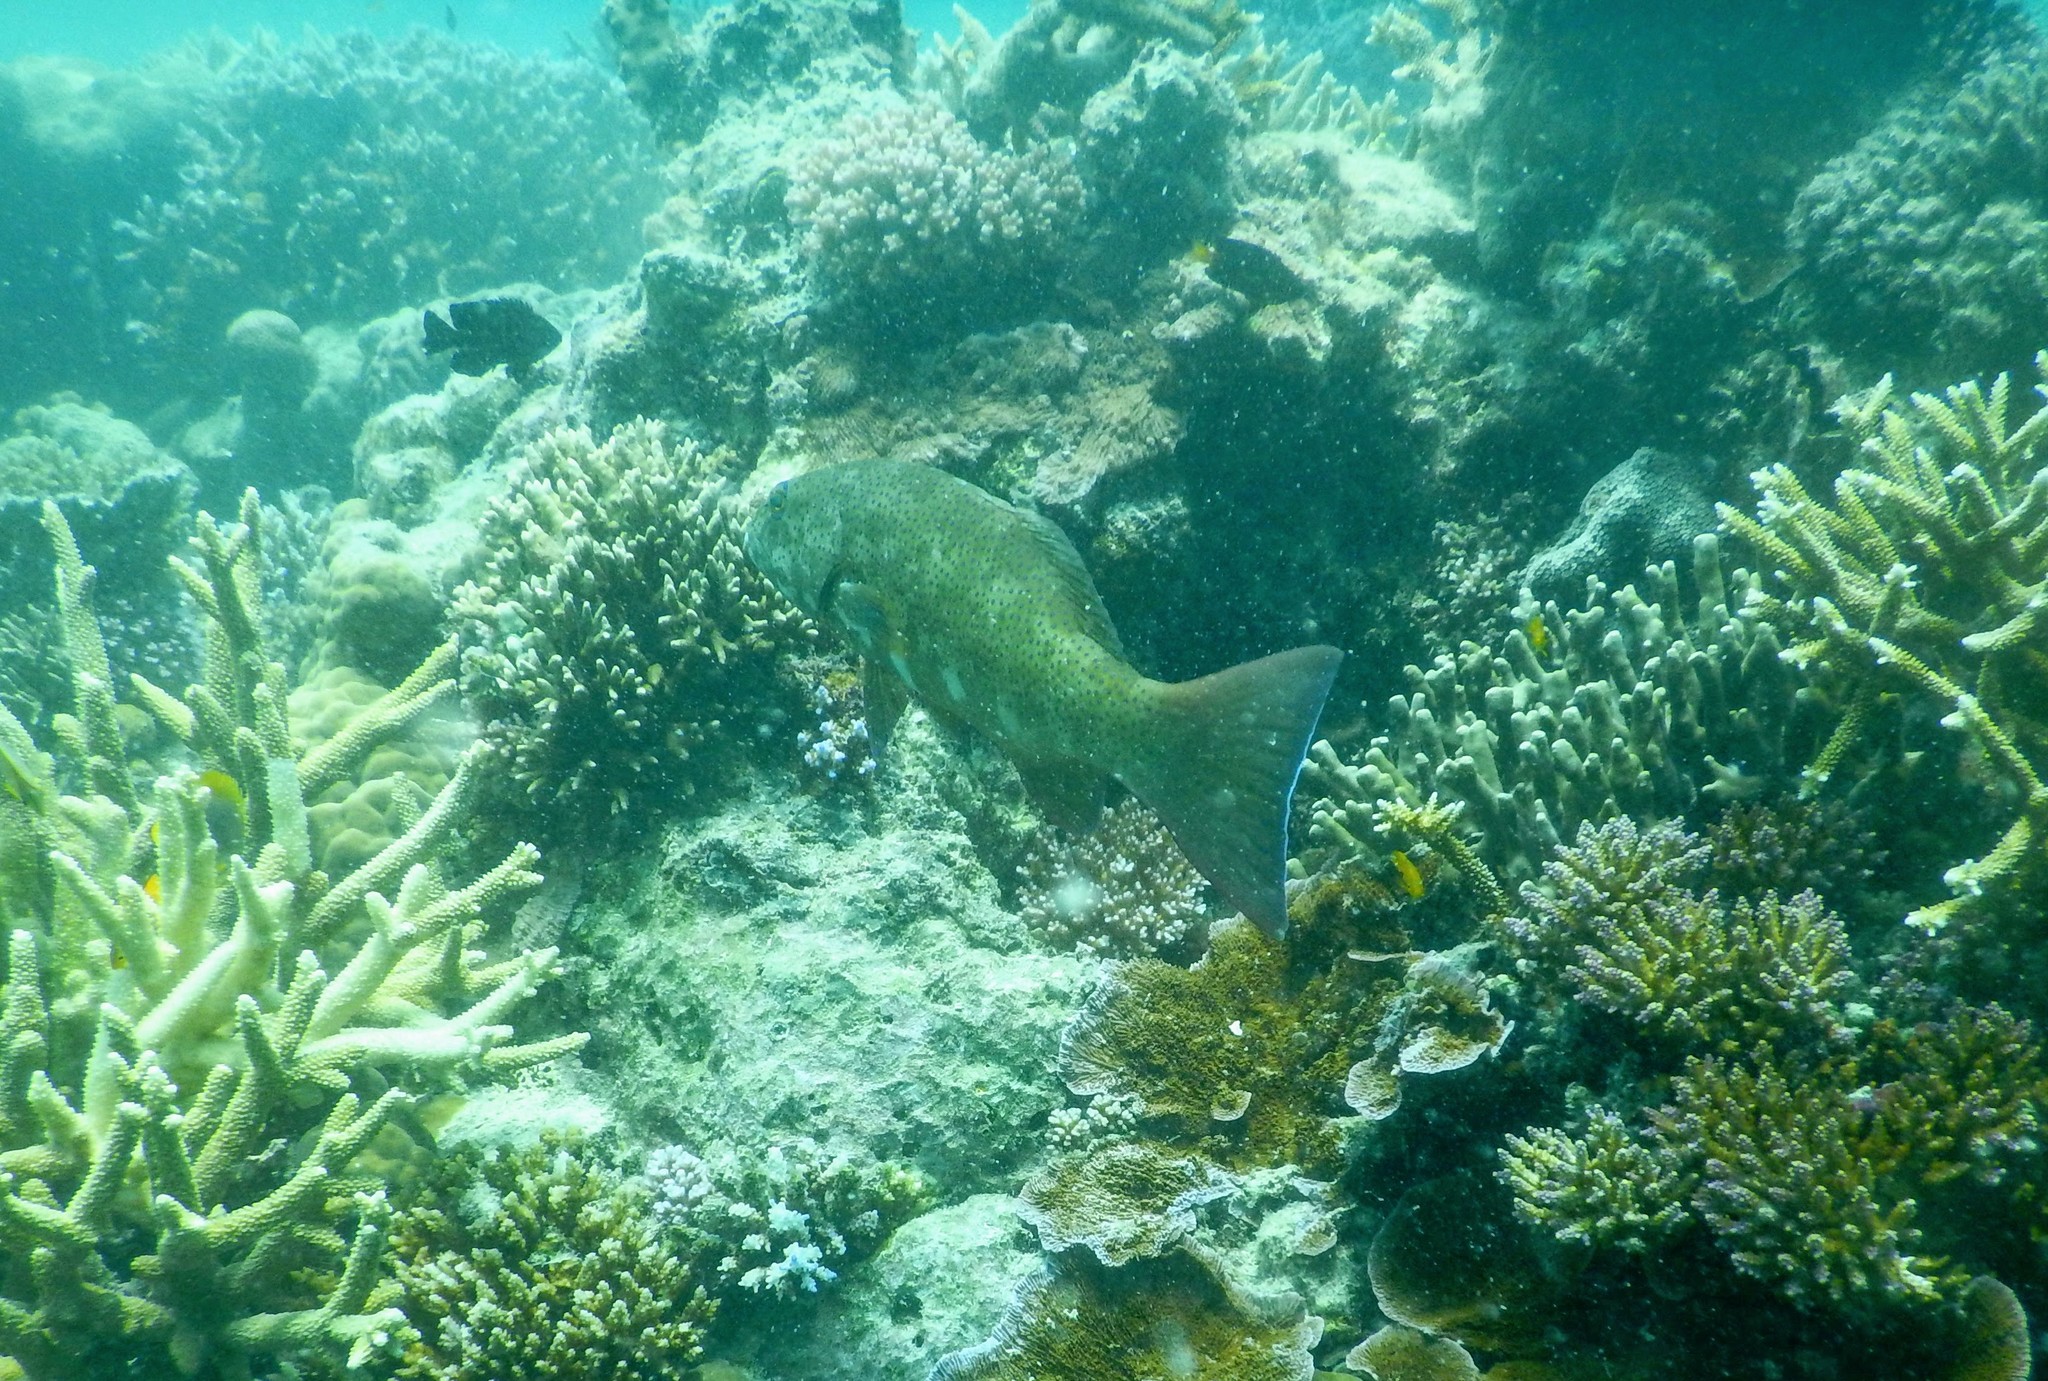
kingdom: Animalia
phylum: Chordata
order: Perciformes
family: Serranidae
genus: Epinephelus
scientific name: Epinephelus coeruleopunctatus
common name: Whitespotted grouper
